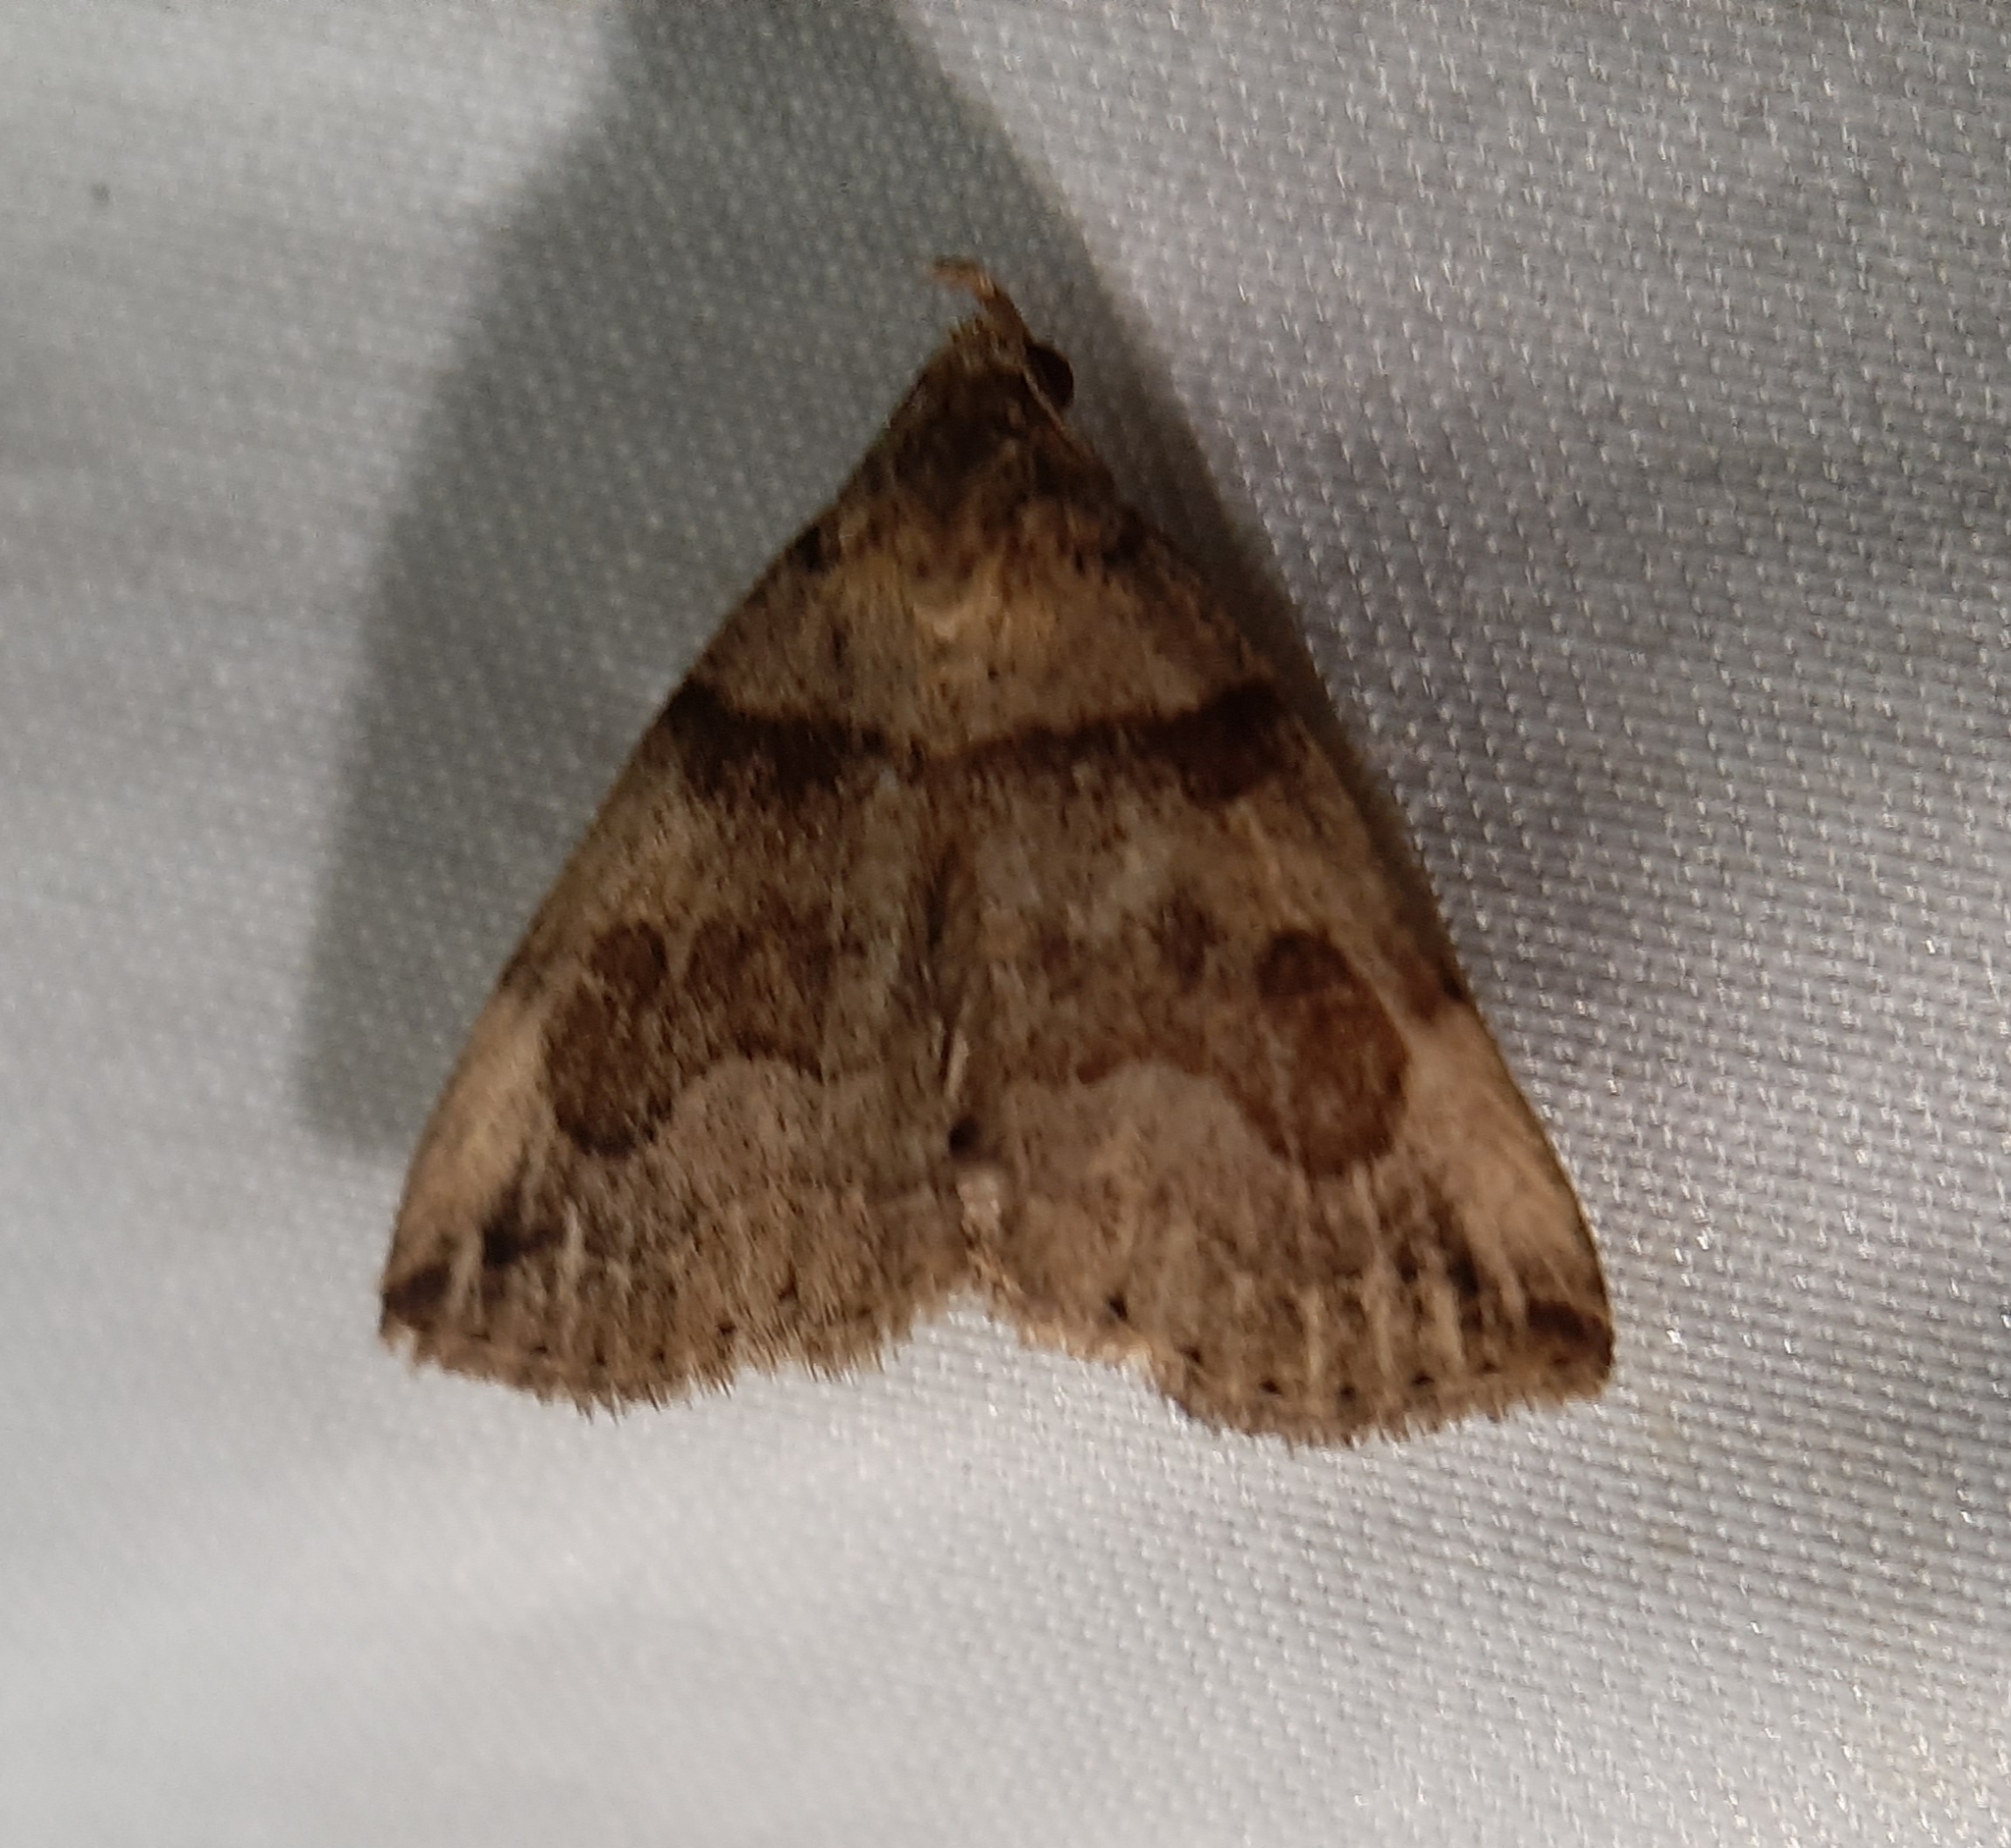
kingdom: Animalia
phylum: Arthropoda
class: Insecta
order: Lepidoptera
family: Erebidae
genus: Zanclognatha
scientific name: Zanclognatha laevigata
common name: Variable fan-foot
